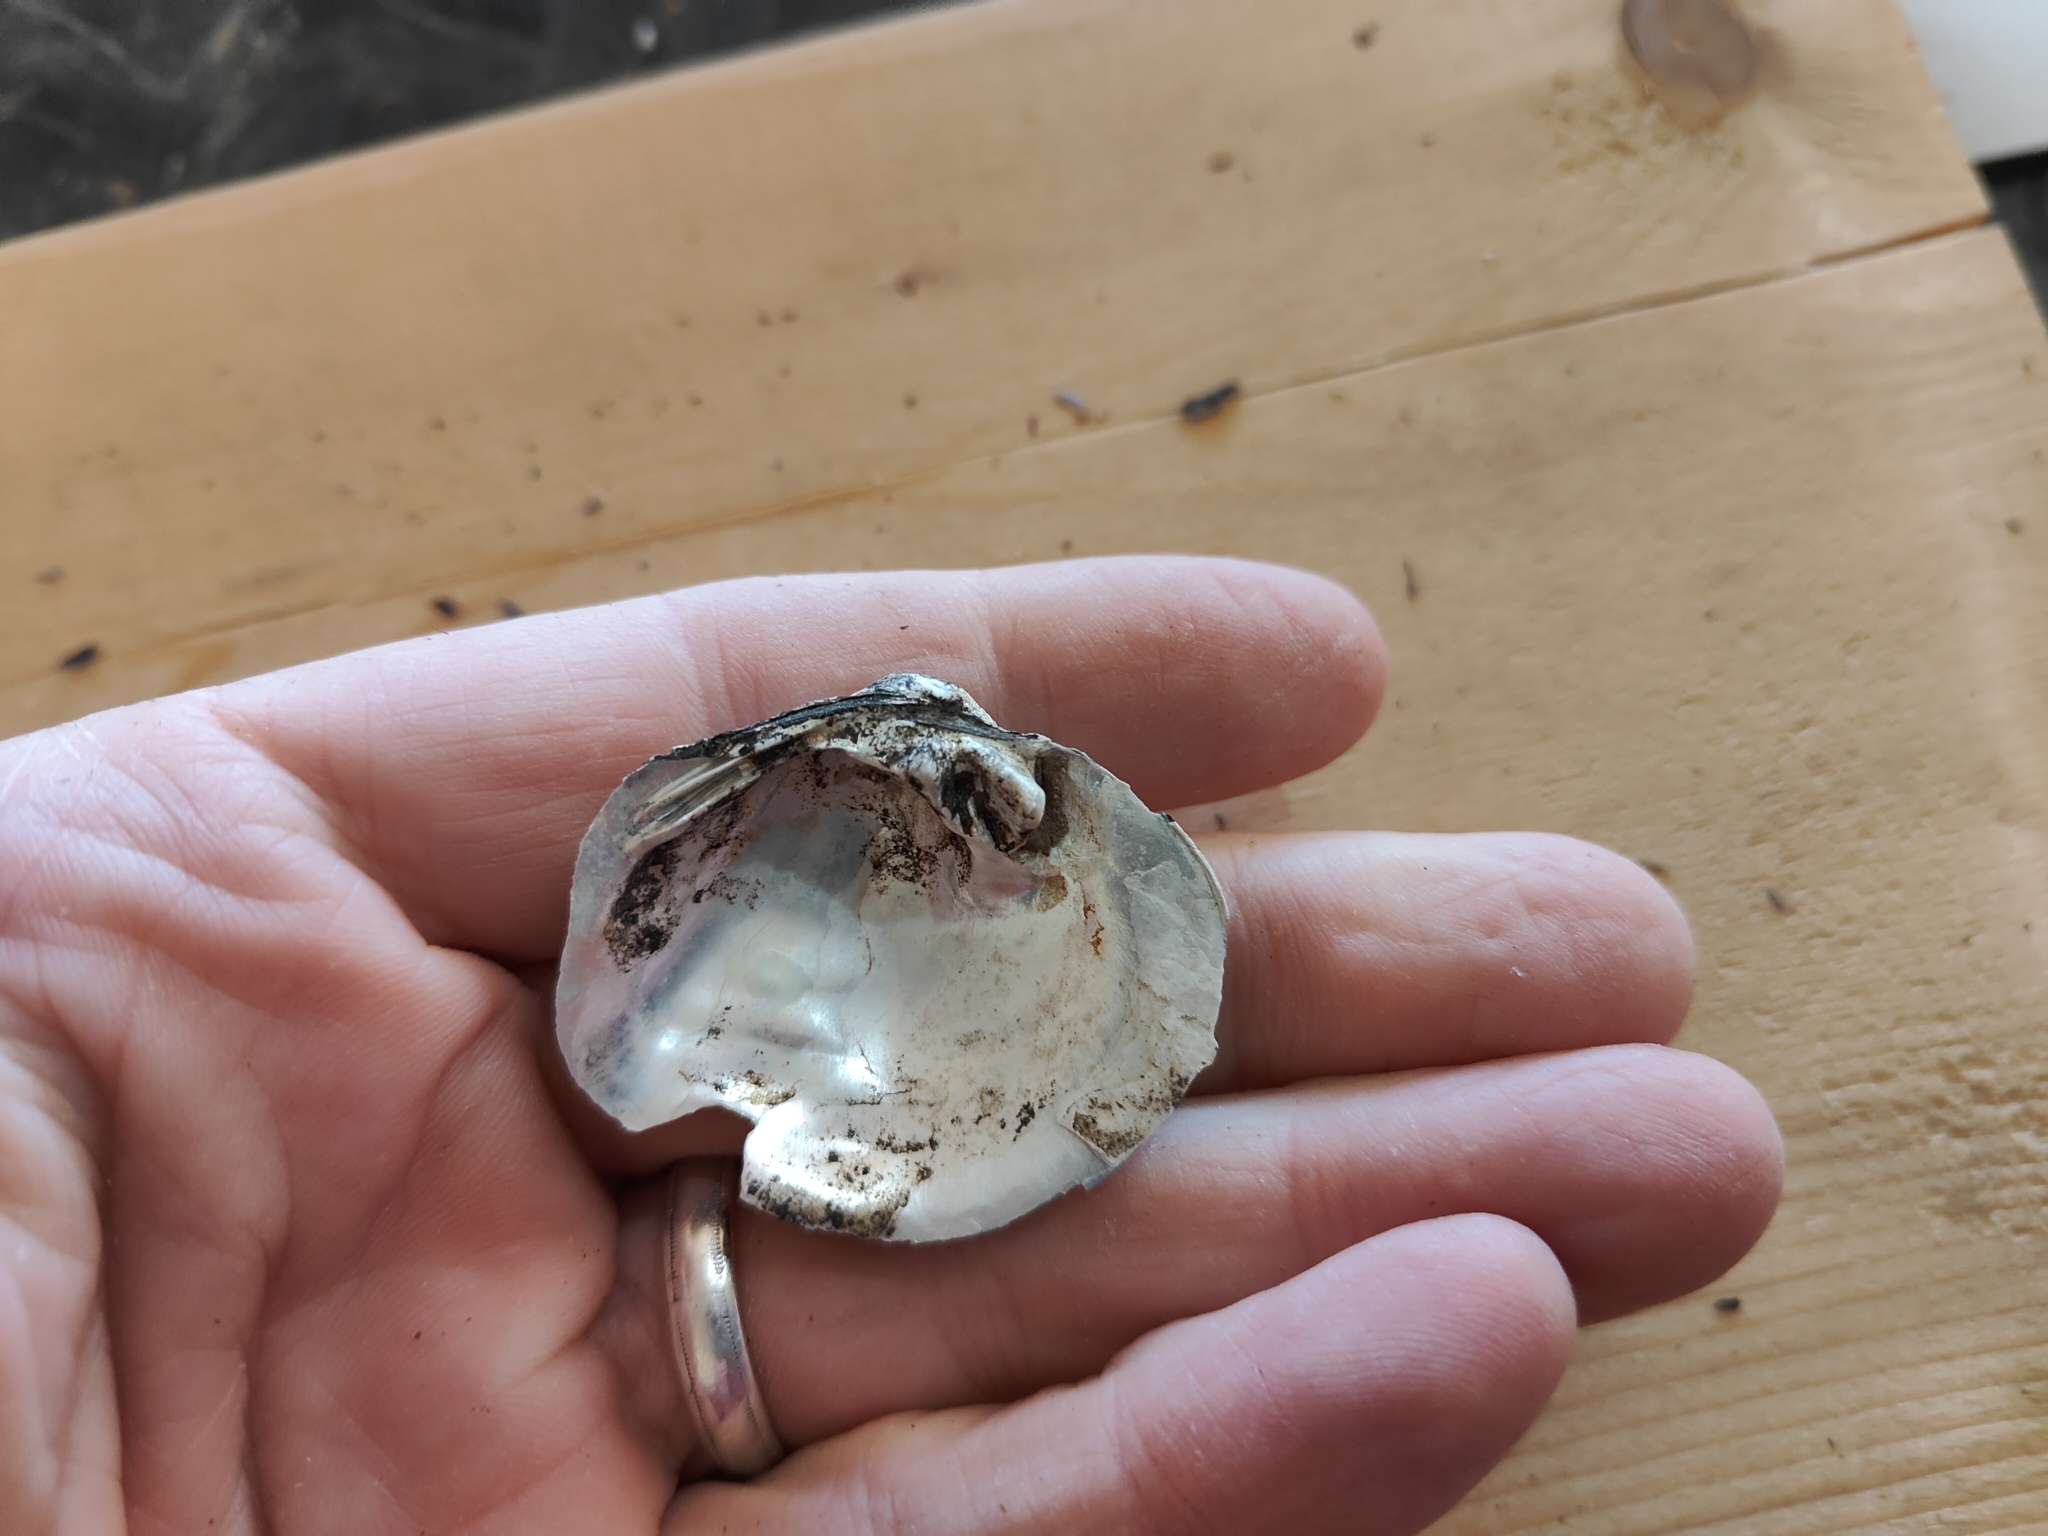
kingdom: Animalia
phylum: Mollusca
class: Bivalvia
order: Unionida
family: Unionidae
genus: Quadrula
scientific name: Quadrula quadrula
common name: Mapleleaf
